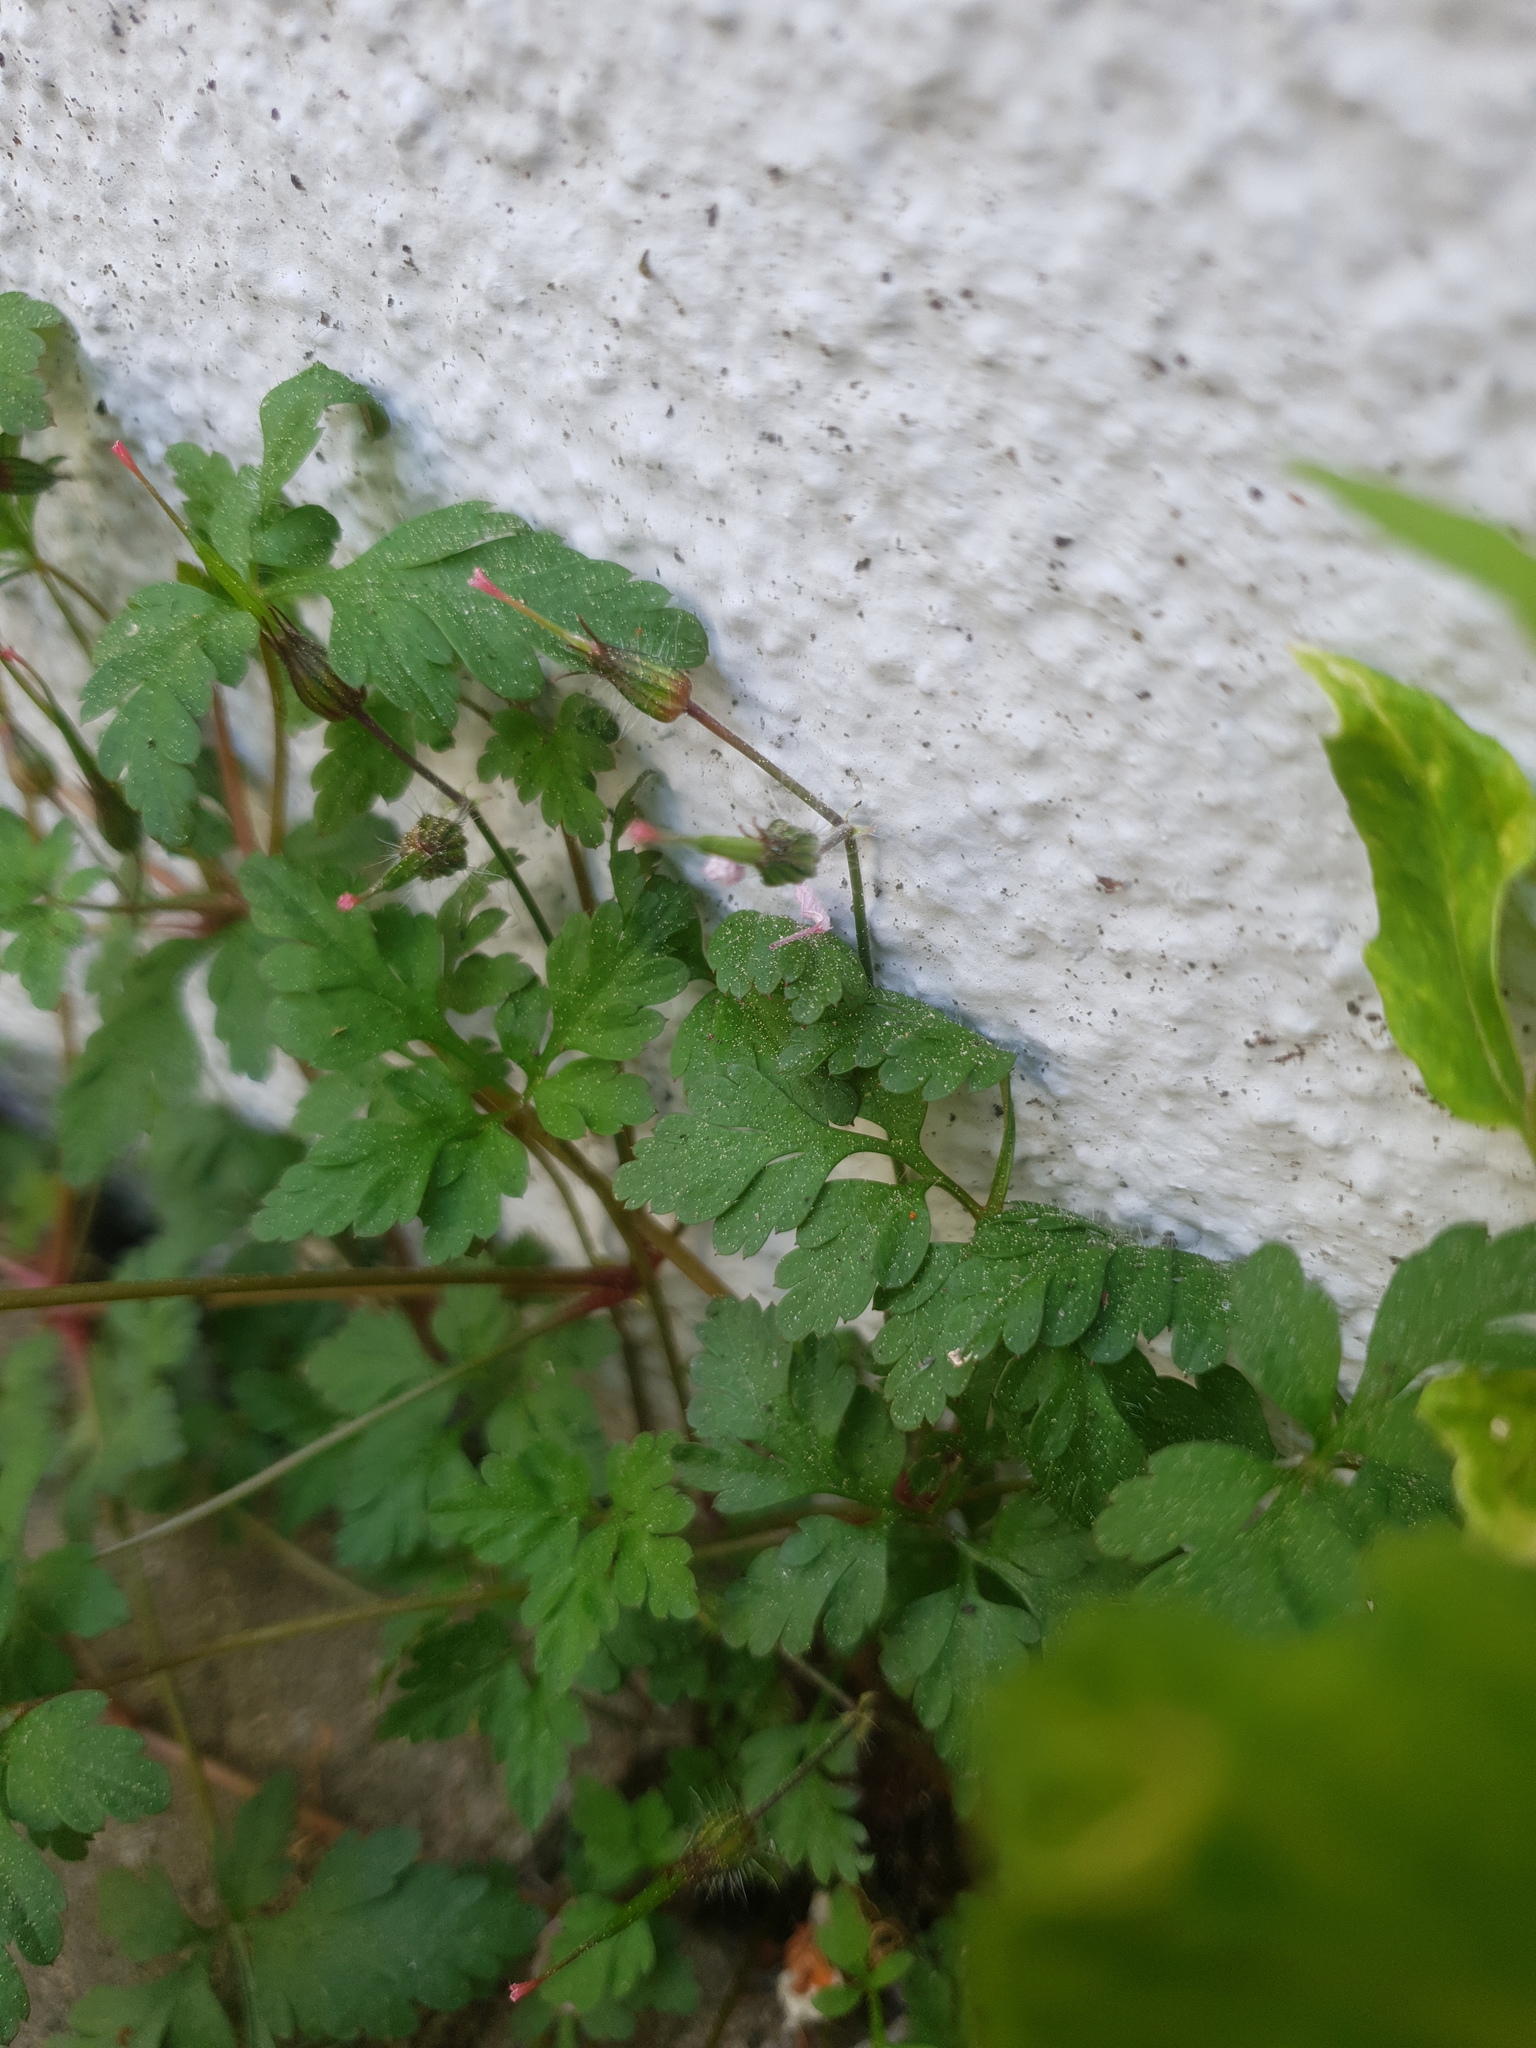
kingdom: Plantae
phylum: Tracheophyta
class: Magnoliopsida
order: Geraniales
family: Geraniaceae
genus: Geranium
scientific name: Geranium robertianum
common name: Herb-robert
